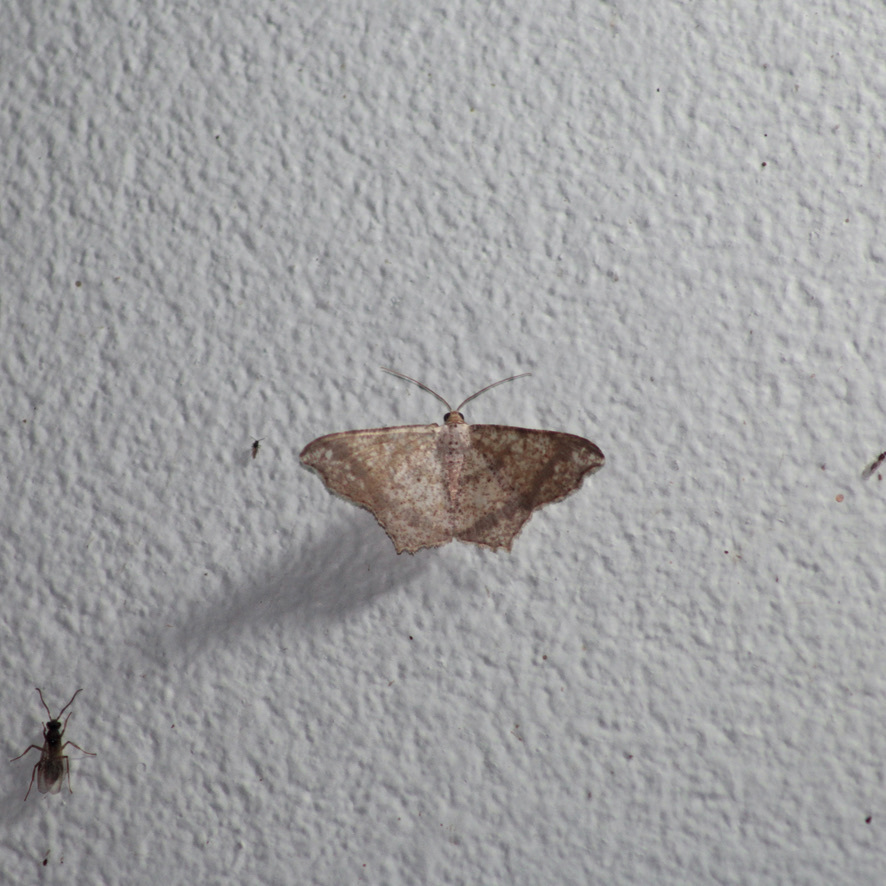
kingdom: Animalia
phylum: Arthropoda
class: Insecta
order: Lepidoptera
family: Geometridae
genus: Semiothisa
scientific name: Semiothisa salsa
